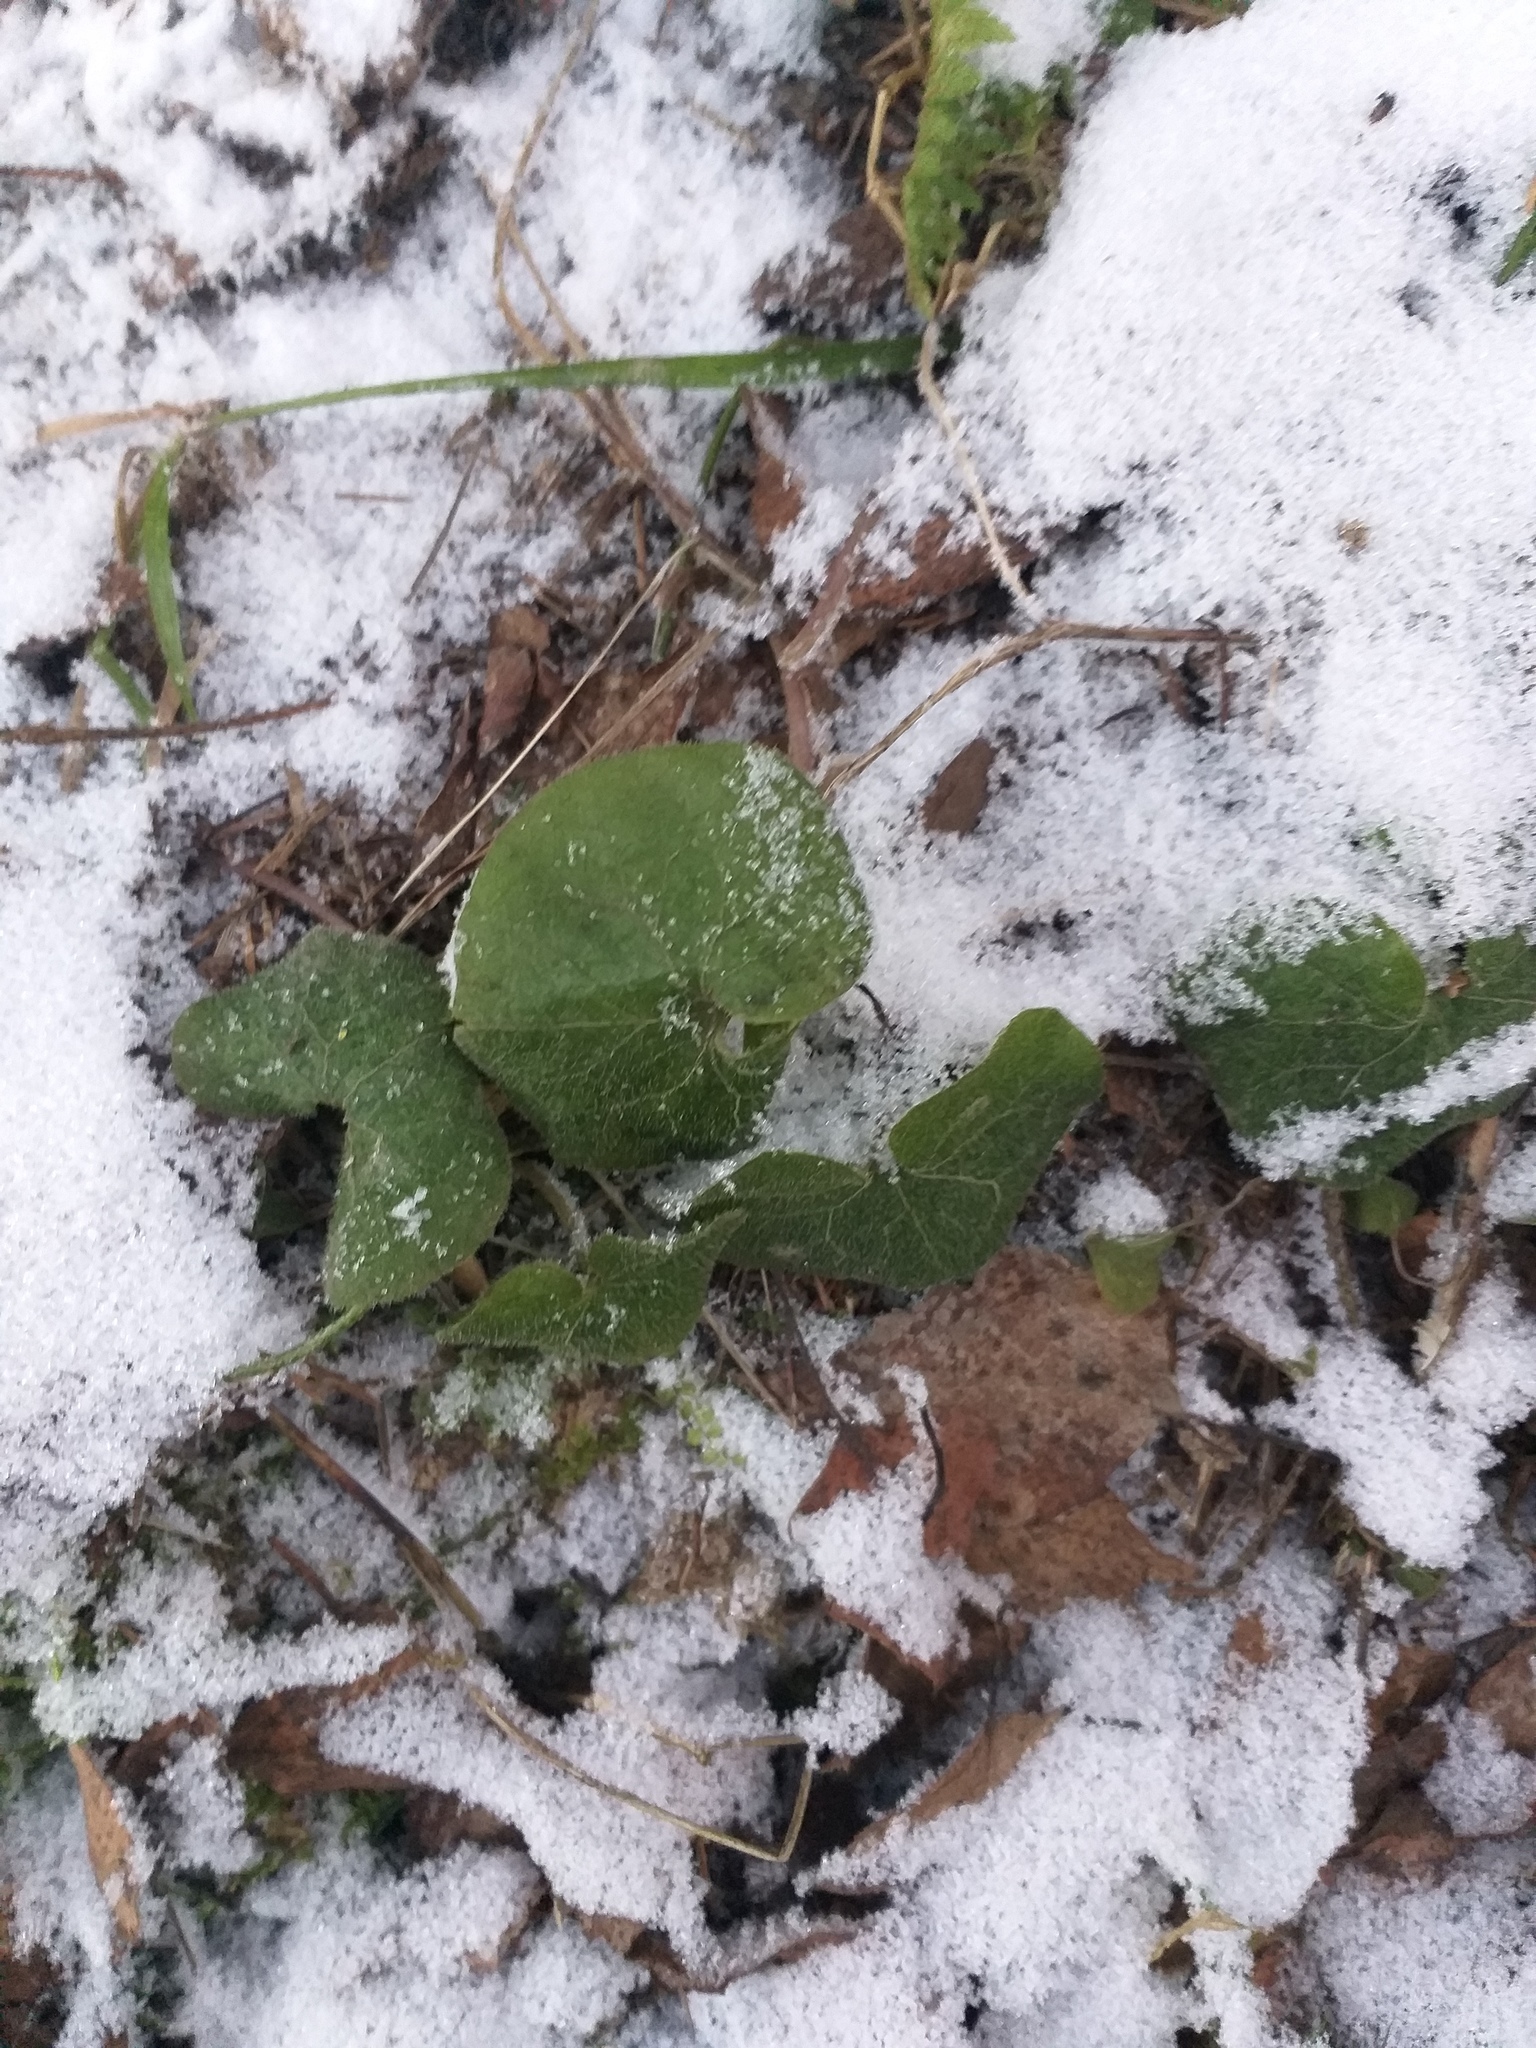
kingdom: Plantae
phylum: Tracheophyta
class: Magnoliopsida
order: Piperales
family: Aristolochiaceae
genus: Asarum
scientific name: Asarum europaeum
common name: Asarabacca
